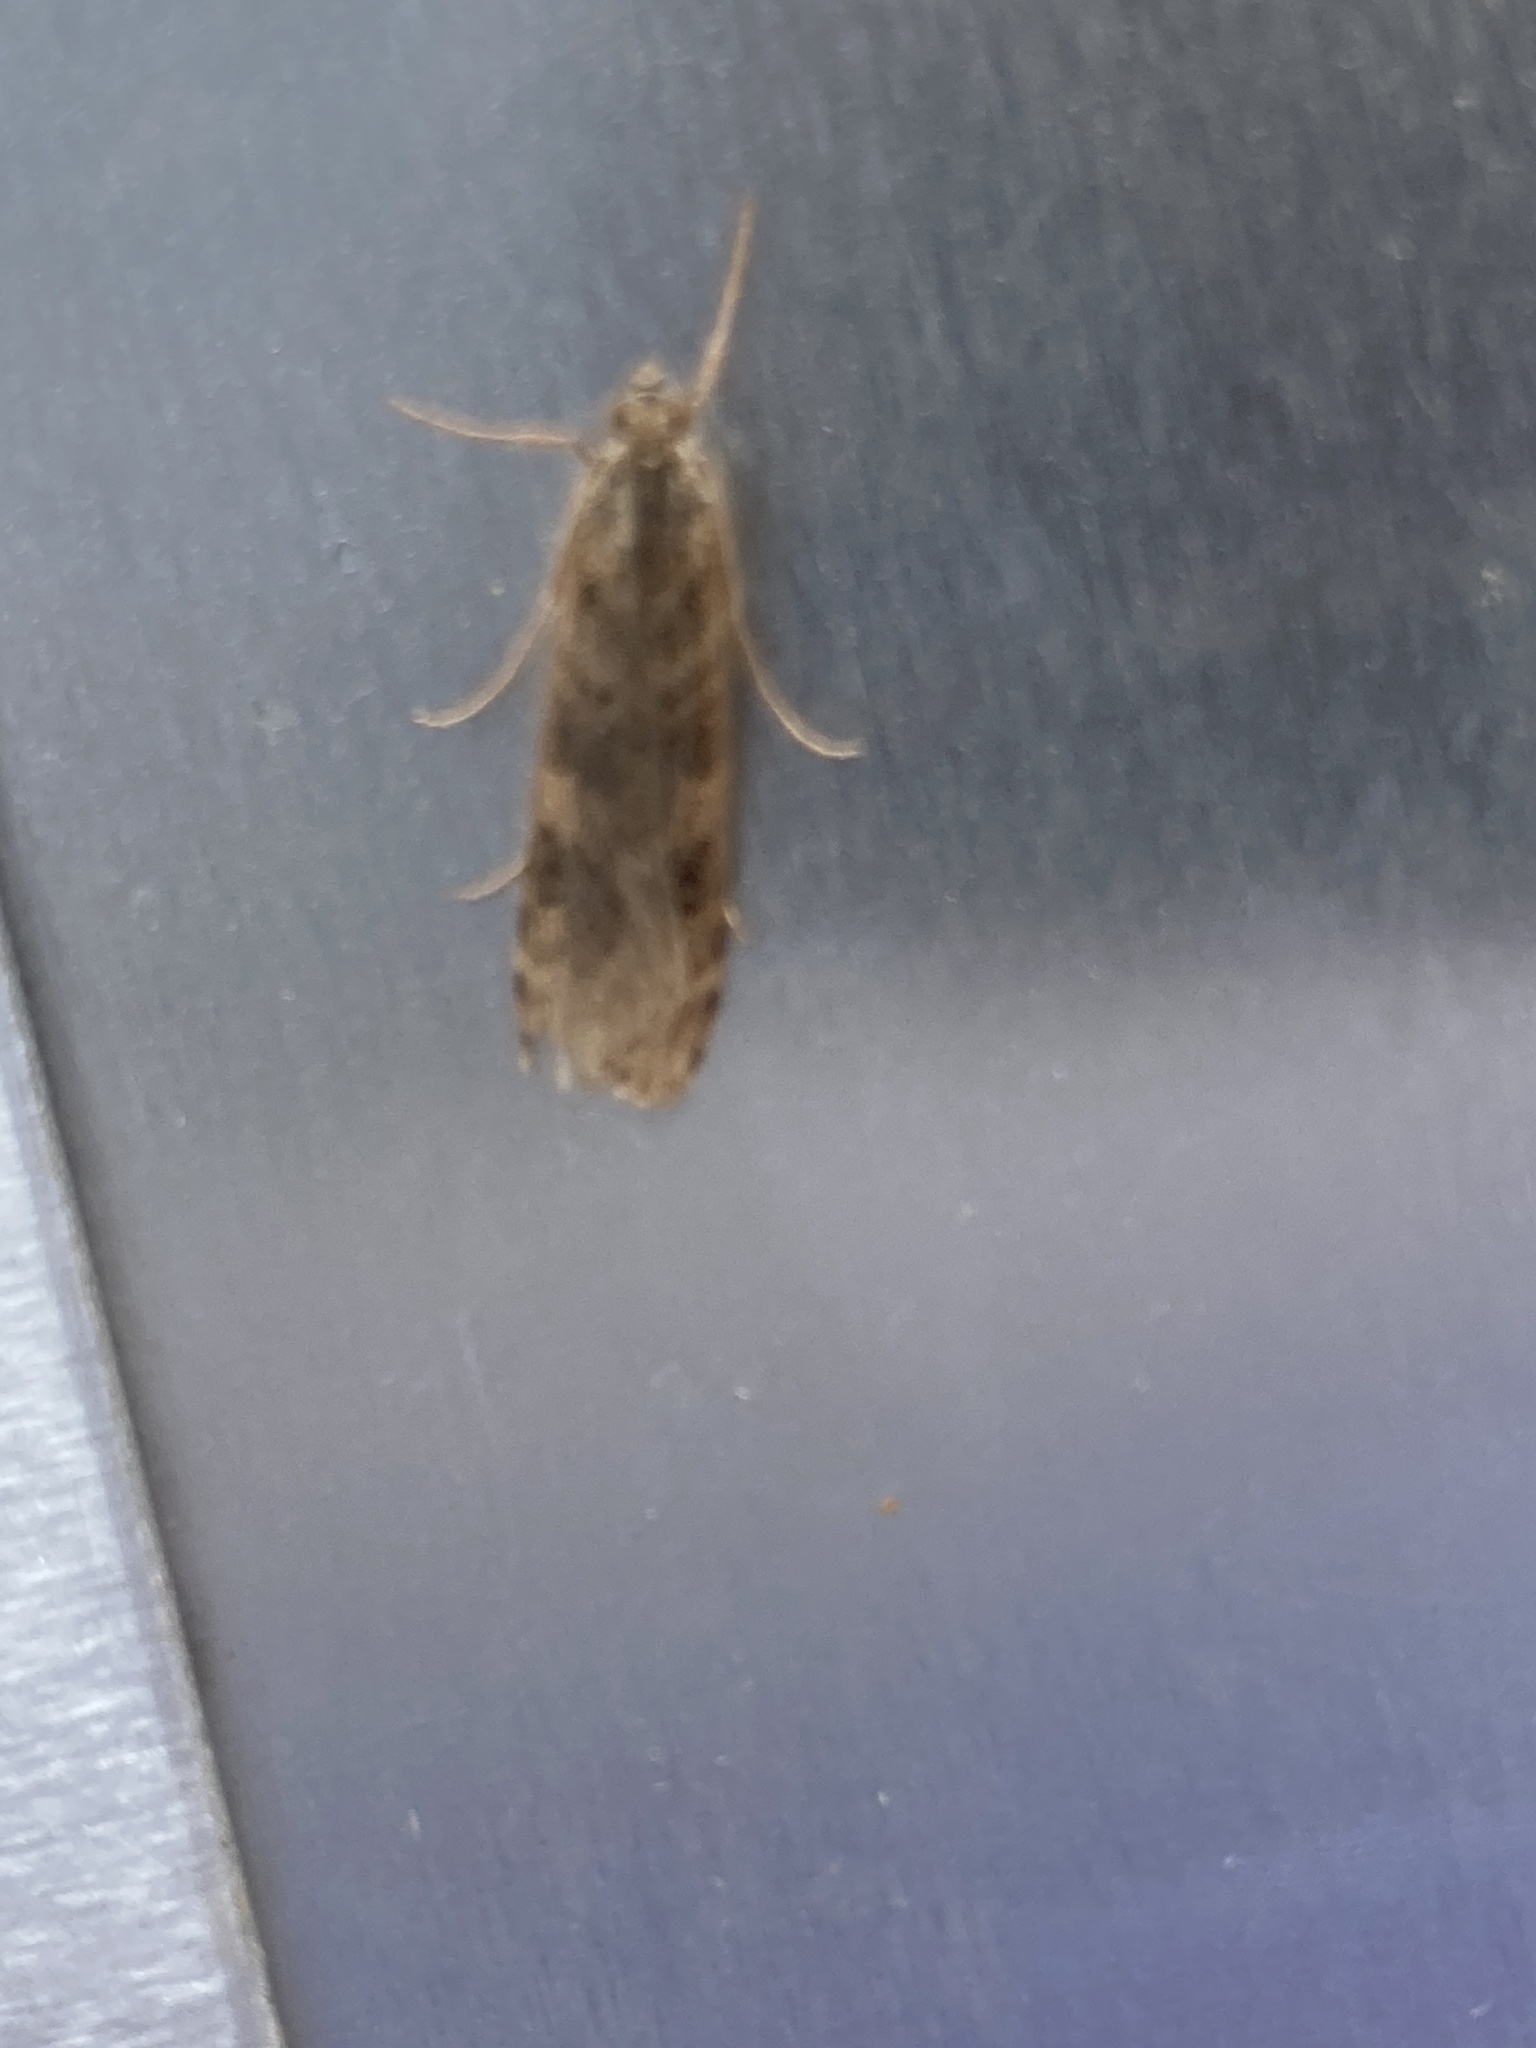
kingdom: Animalia
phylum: Arthropoda
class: Insecta
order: Lepidoptera
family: Crambidae
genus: Nomophila
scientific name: Nomophila noctuella
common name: Rush veneer
